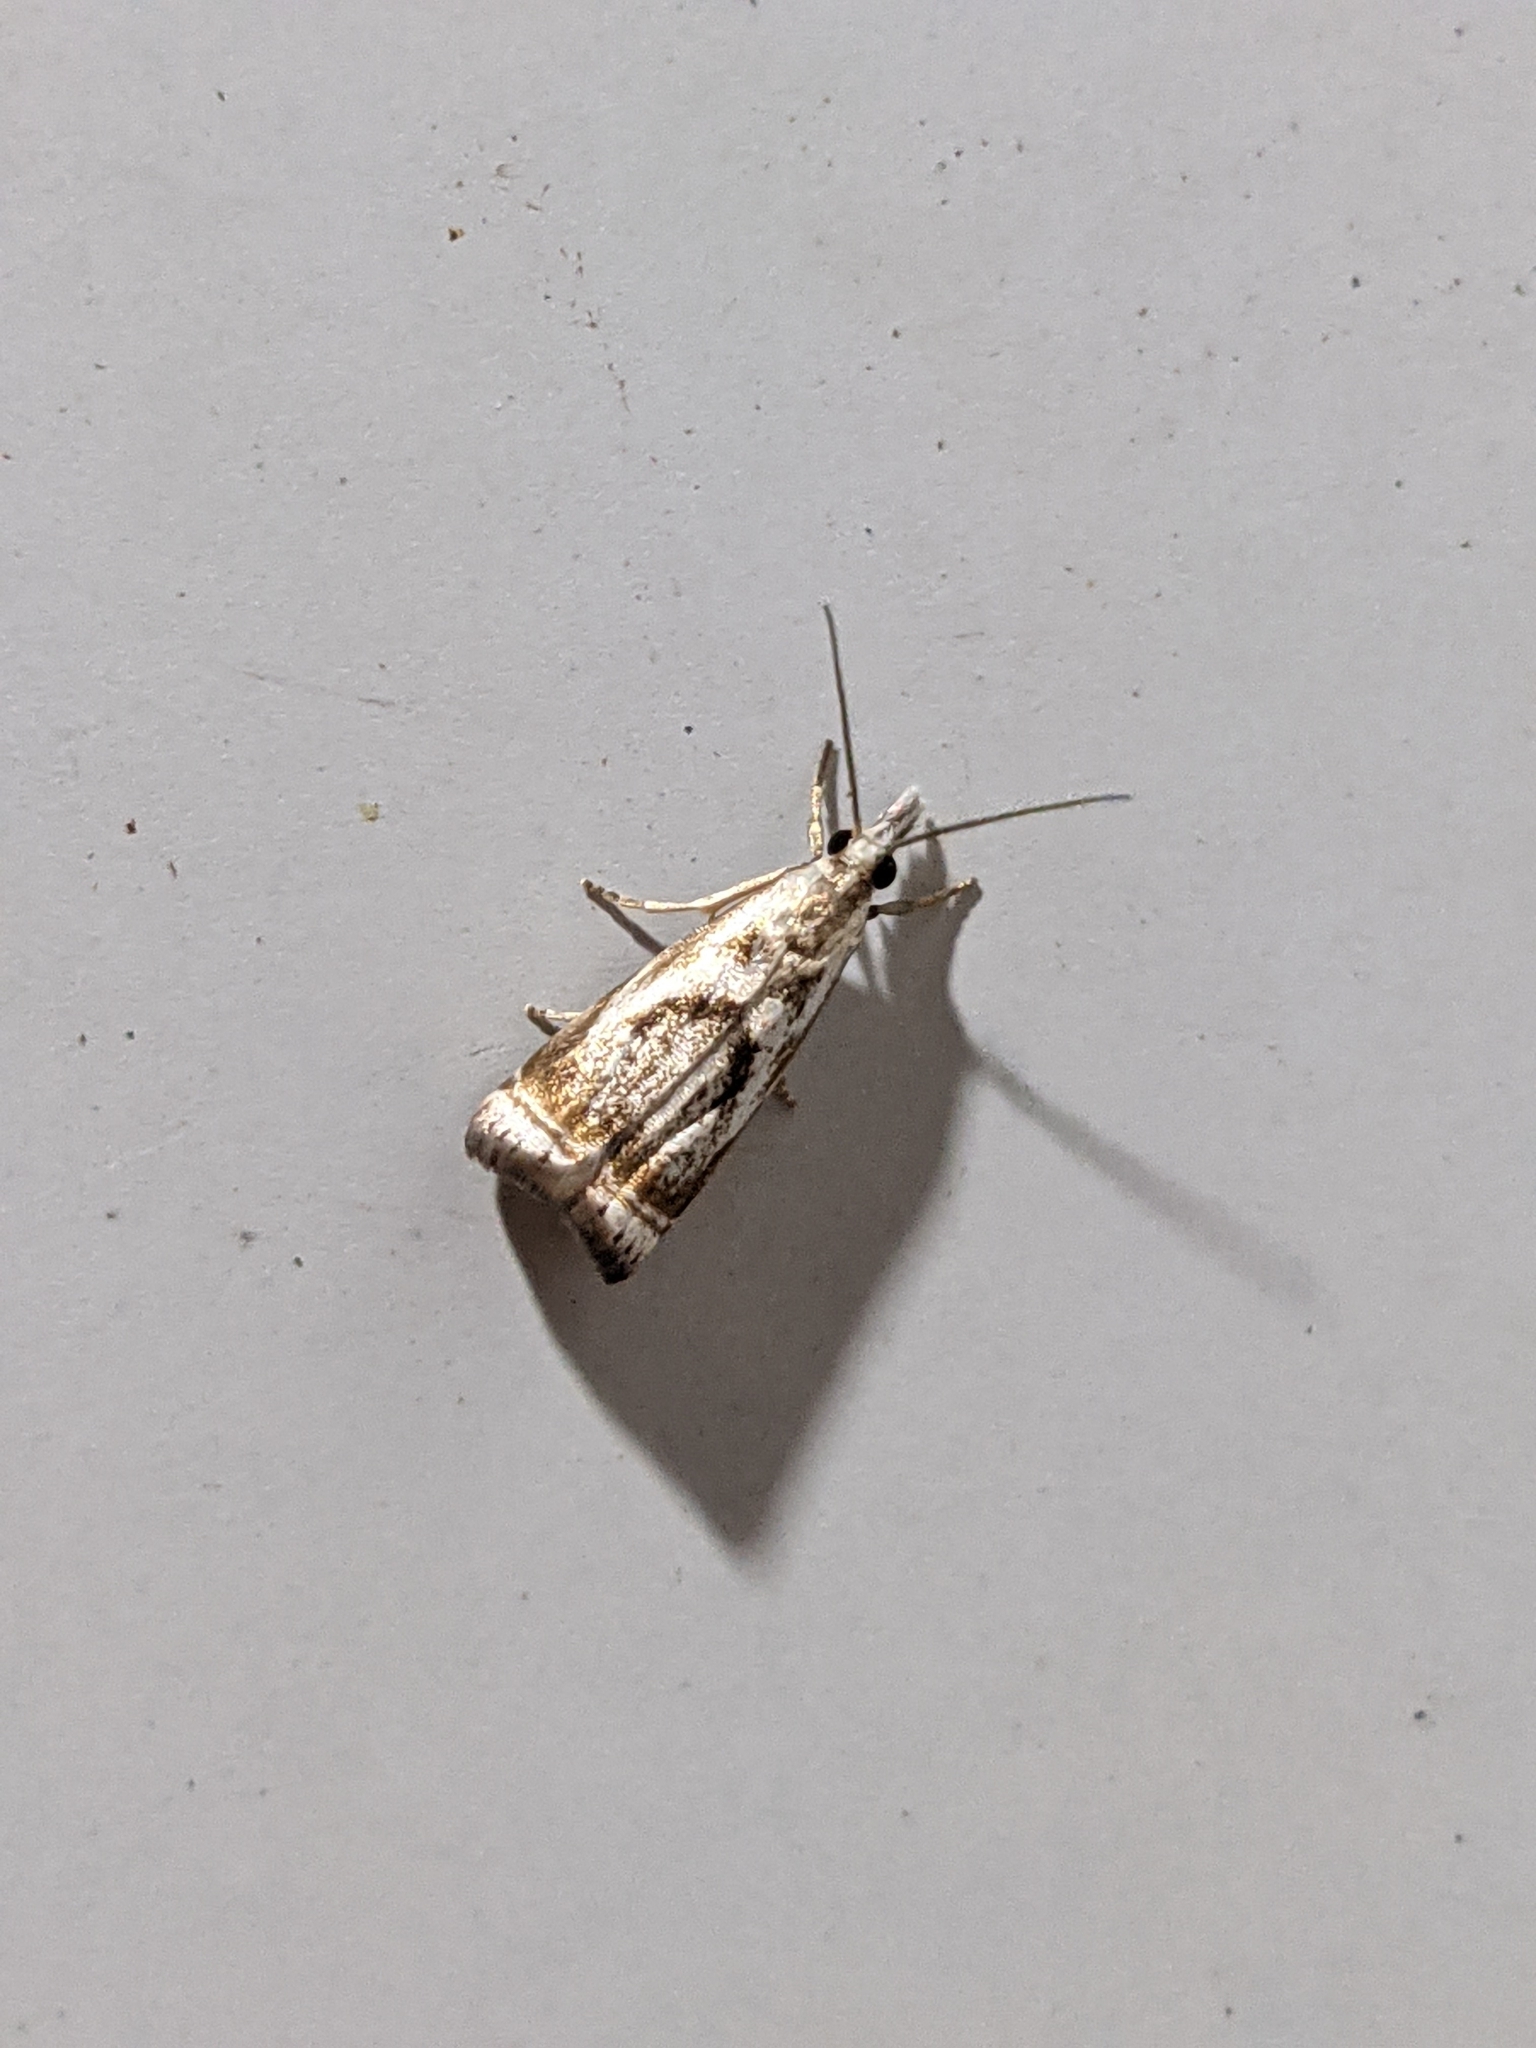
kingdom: Animalia
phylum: Arthropoda
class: Insecta
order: Lepidoptera
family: Crambidae
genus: Microcrambus
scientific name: Microcrambus elegans
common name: Elegant grass-veneer
